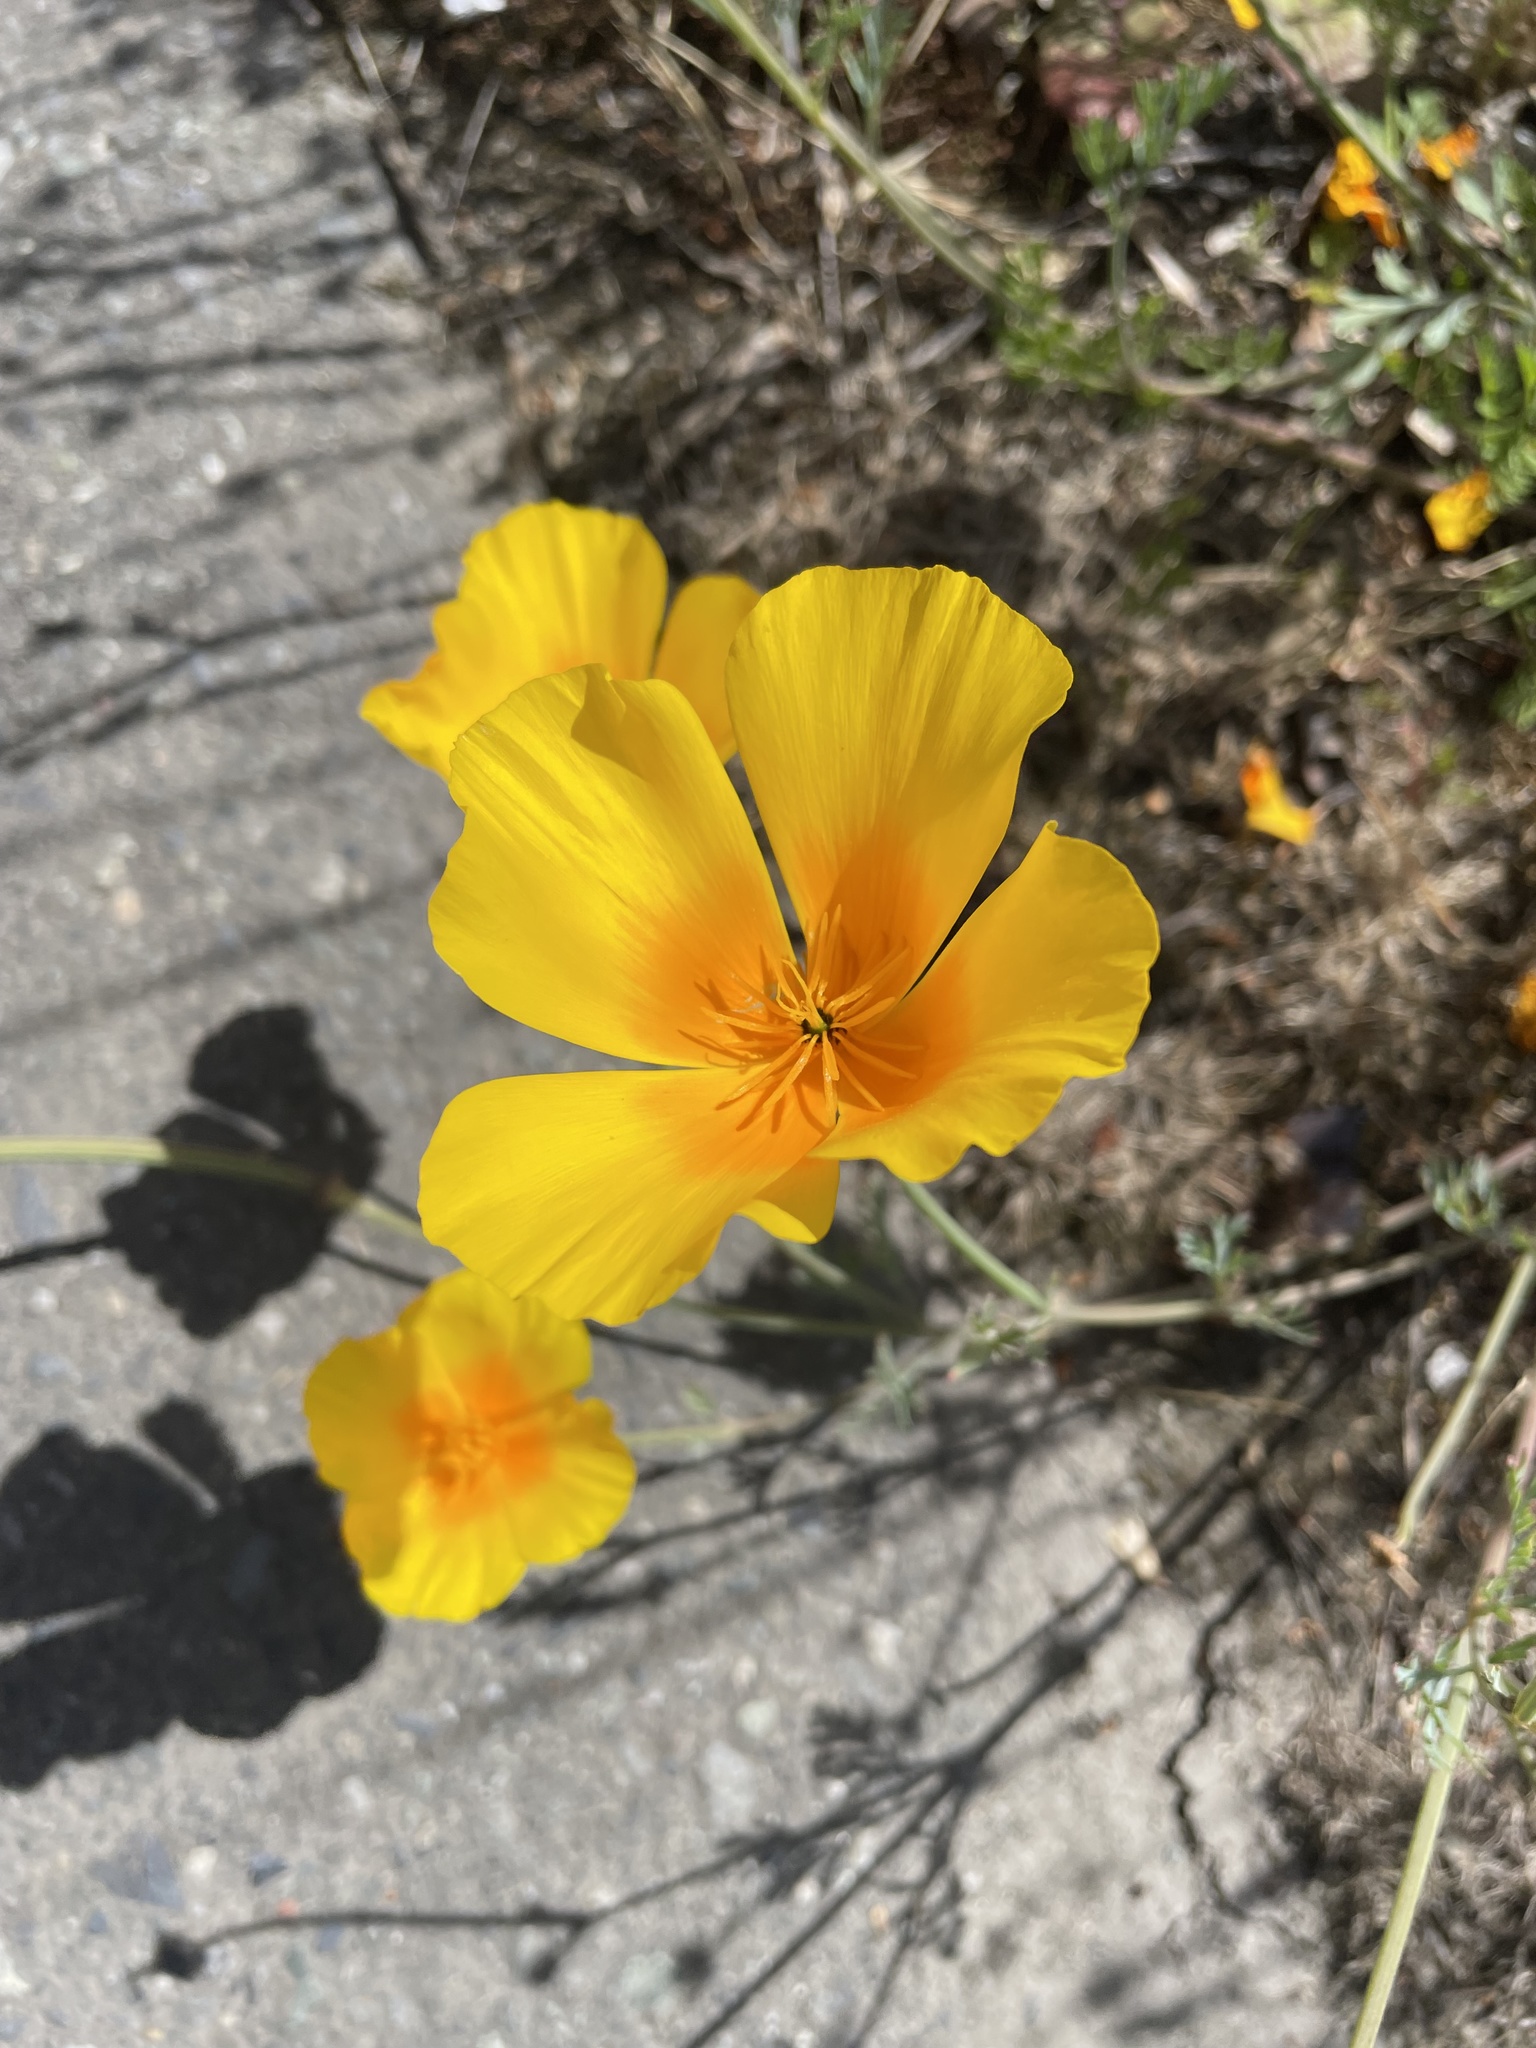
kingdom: Plantae
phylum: Tracheophyta
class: Magnoliopsida
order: Ranunculales
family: Papaveraceae
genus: Eschscholzia
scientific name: Eschscholzia californica
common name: California poppy
